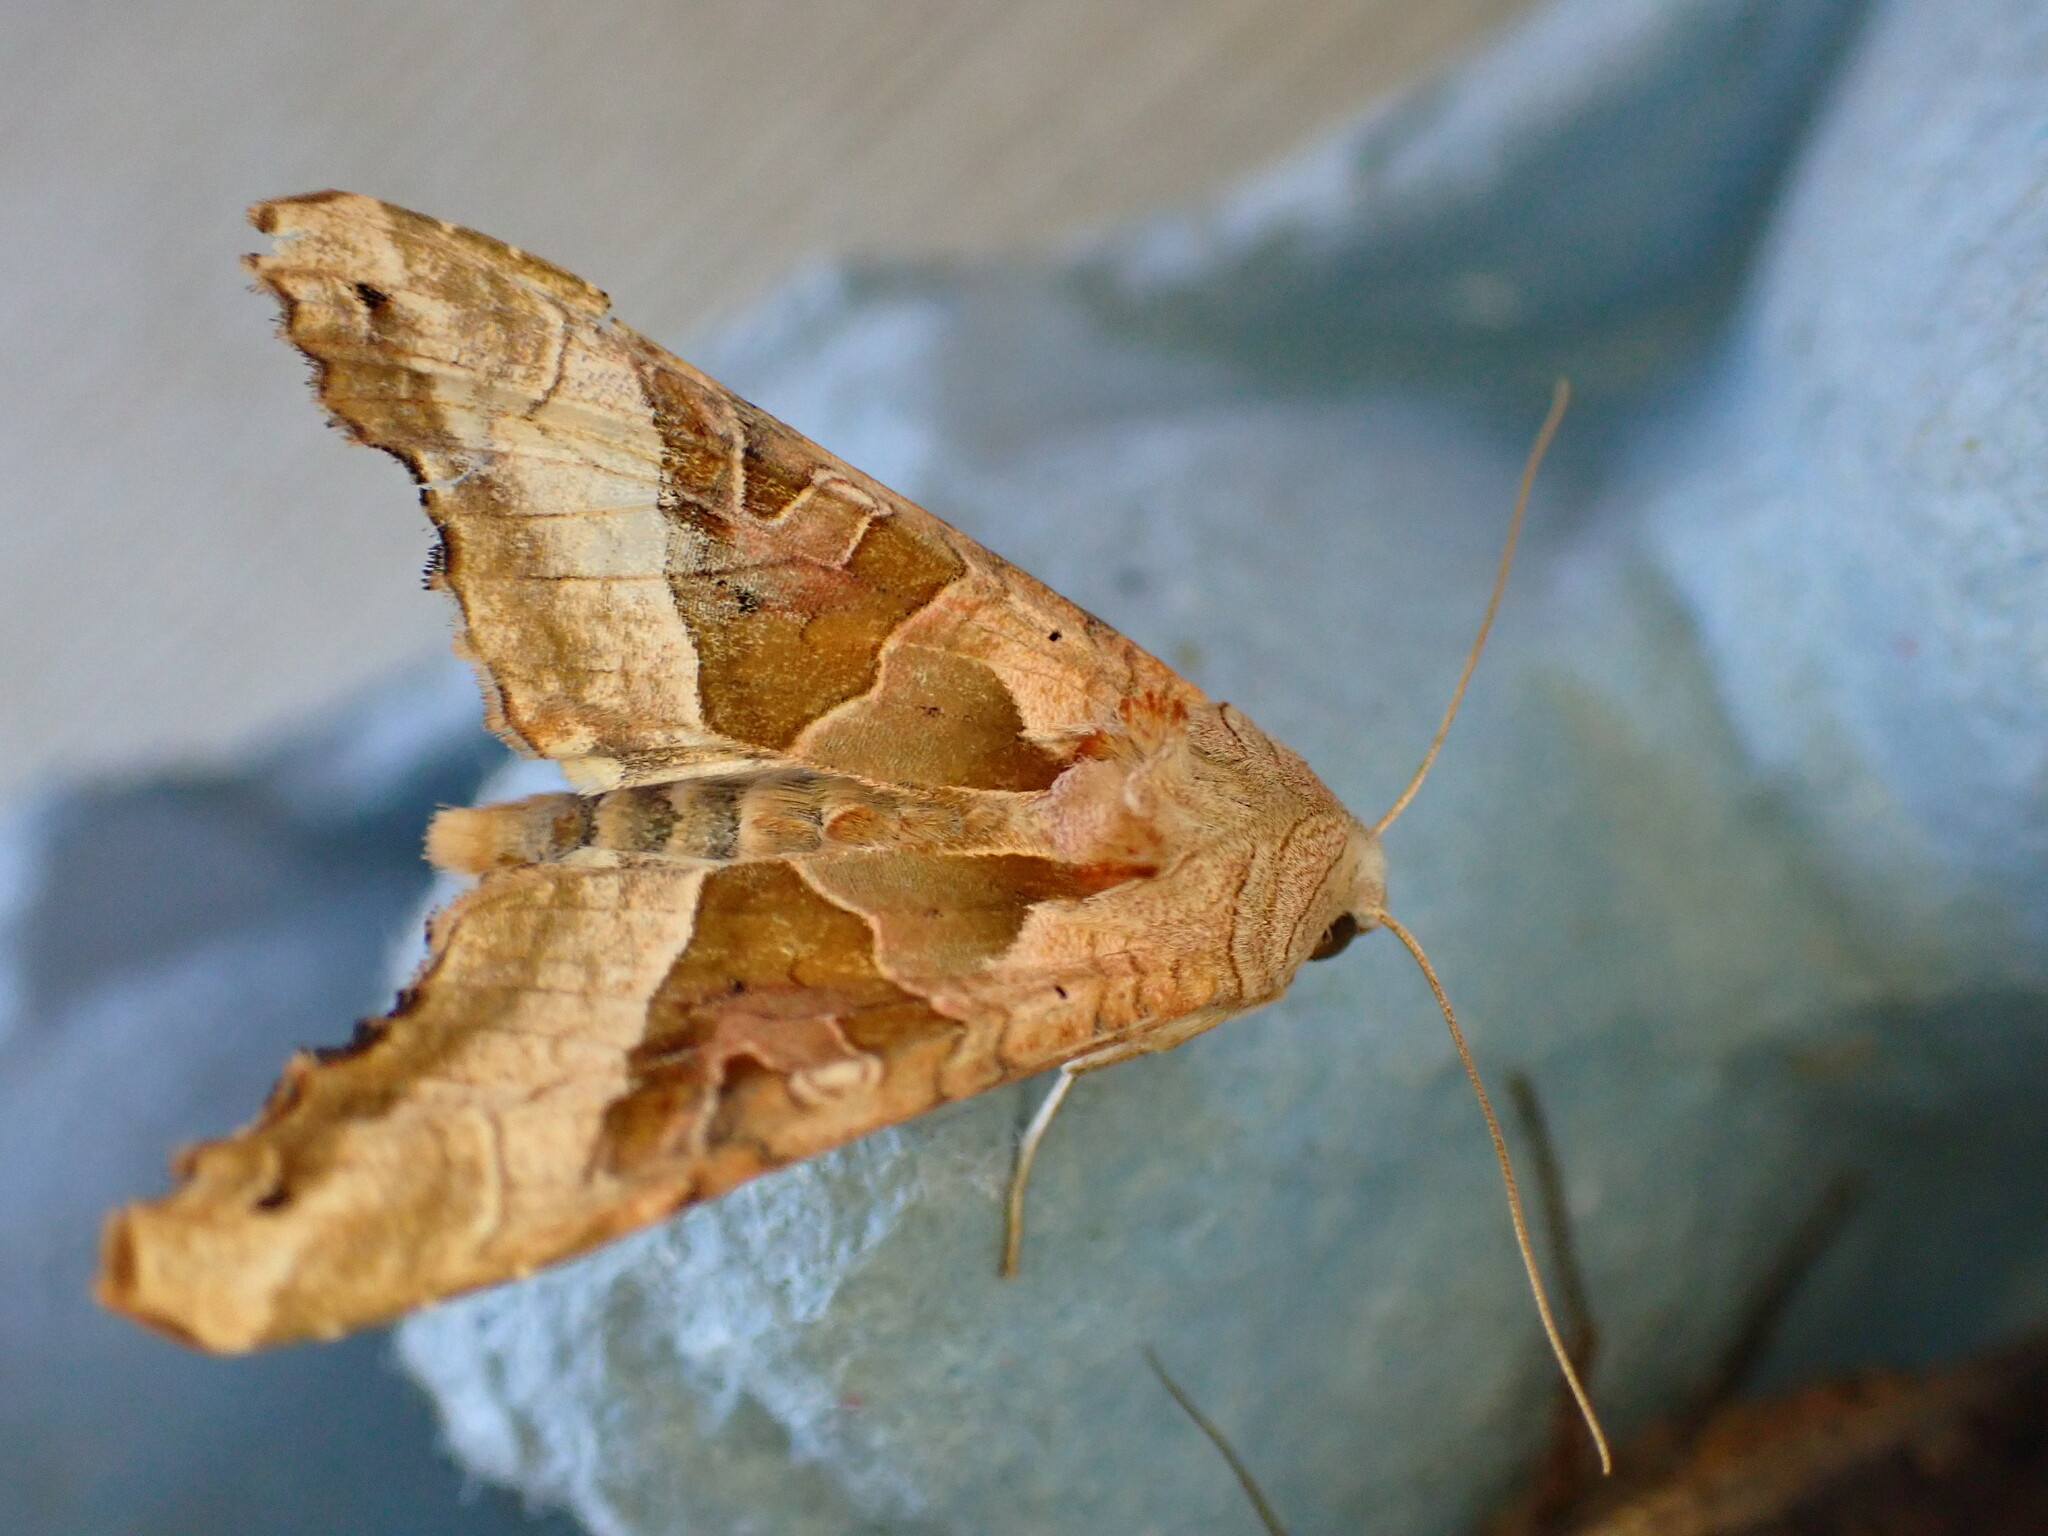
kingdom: Animalia
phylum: Arthropoda
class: Insecta
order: Lepidoptera
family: Noctuidae
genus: Phlogophora
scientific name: Phlogophora meticulosa
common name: Angle shades
